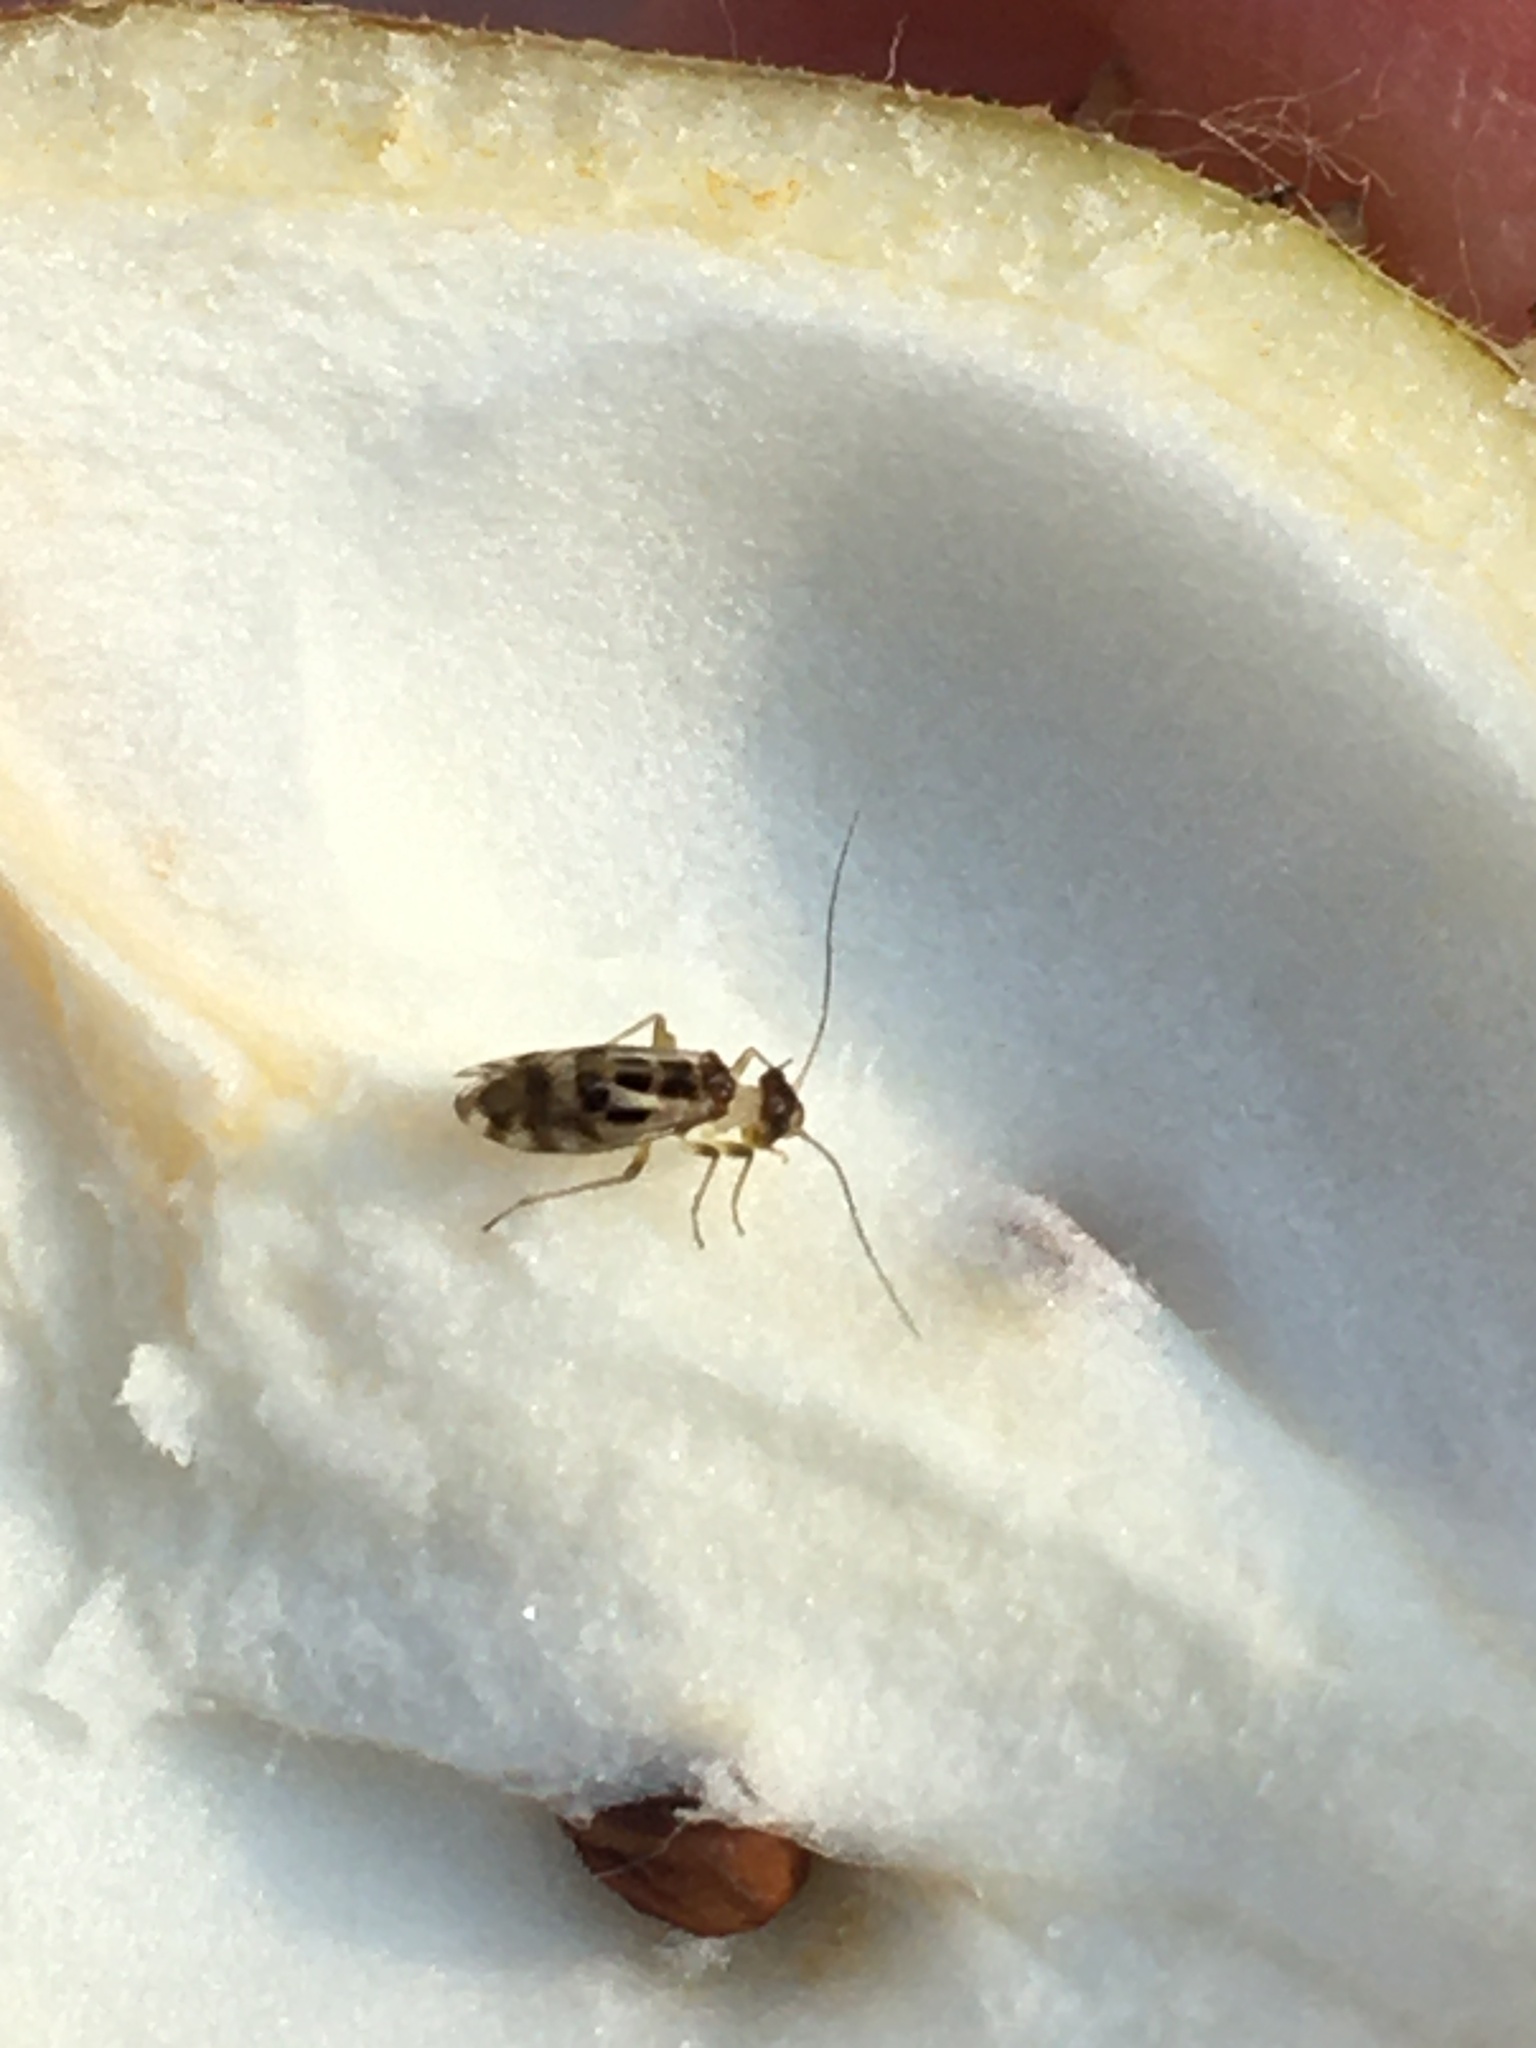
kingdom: Animalia
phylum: Arthropoda
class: Insecta
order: Psocodea
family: Stenopsocidae
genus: Graphopsocus
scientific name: Graphopsocus cruciatus
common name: Lizard bark louse
